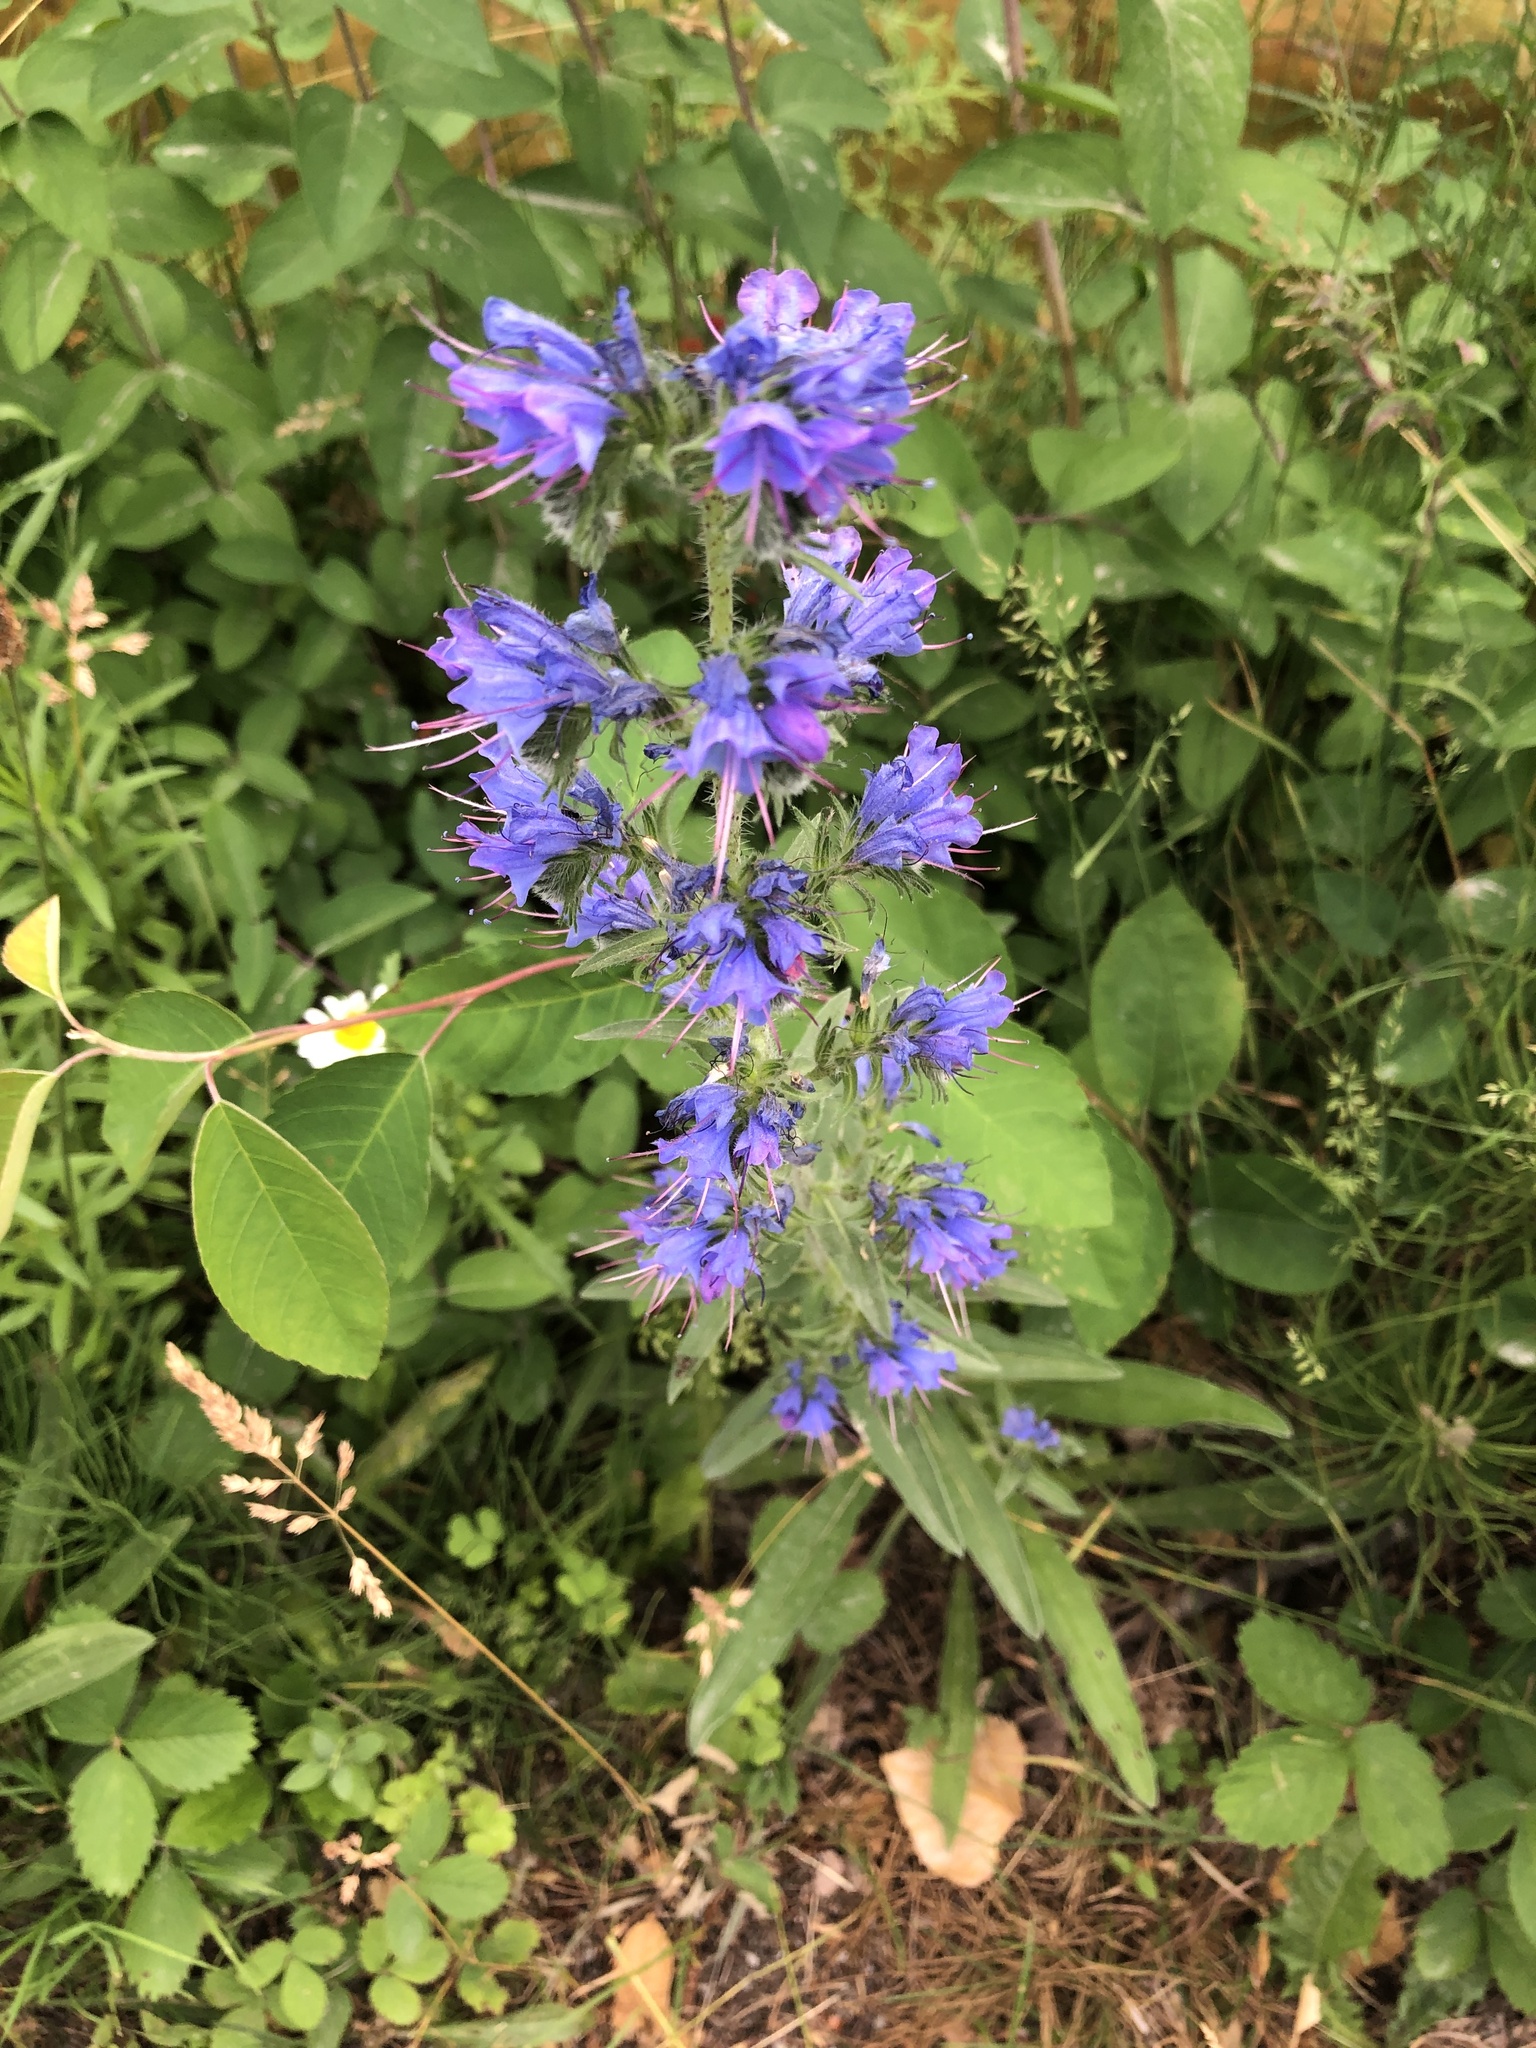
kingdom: Plantae
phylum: Tracheophyta
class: Magnoliopsida
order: Boraginales
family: Boraginaceae
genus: Echium
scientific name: Echium vulgare
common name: Common viper's bugloss
